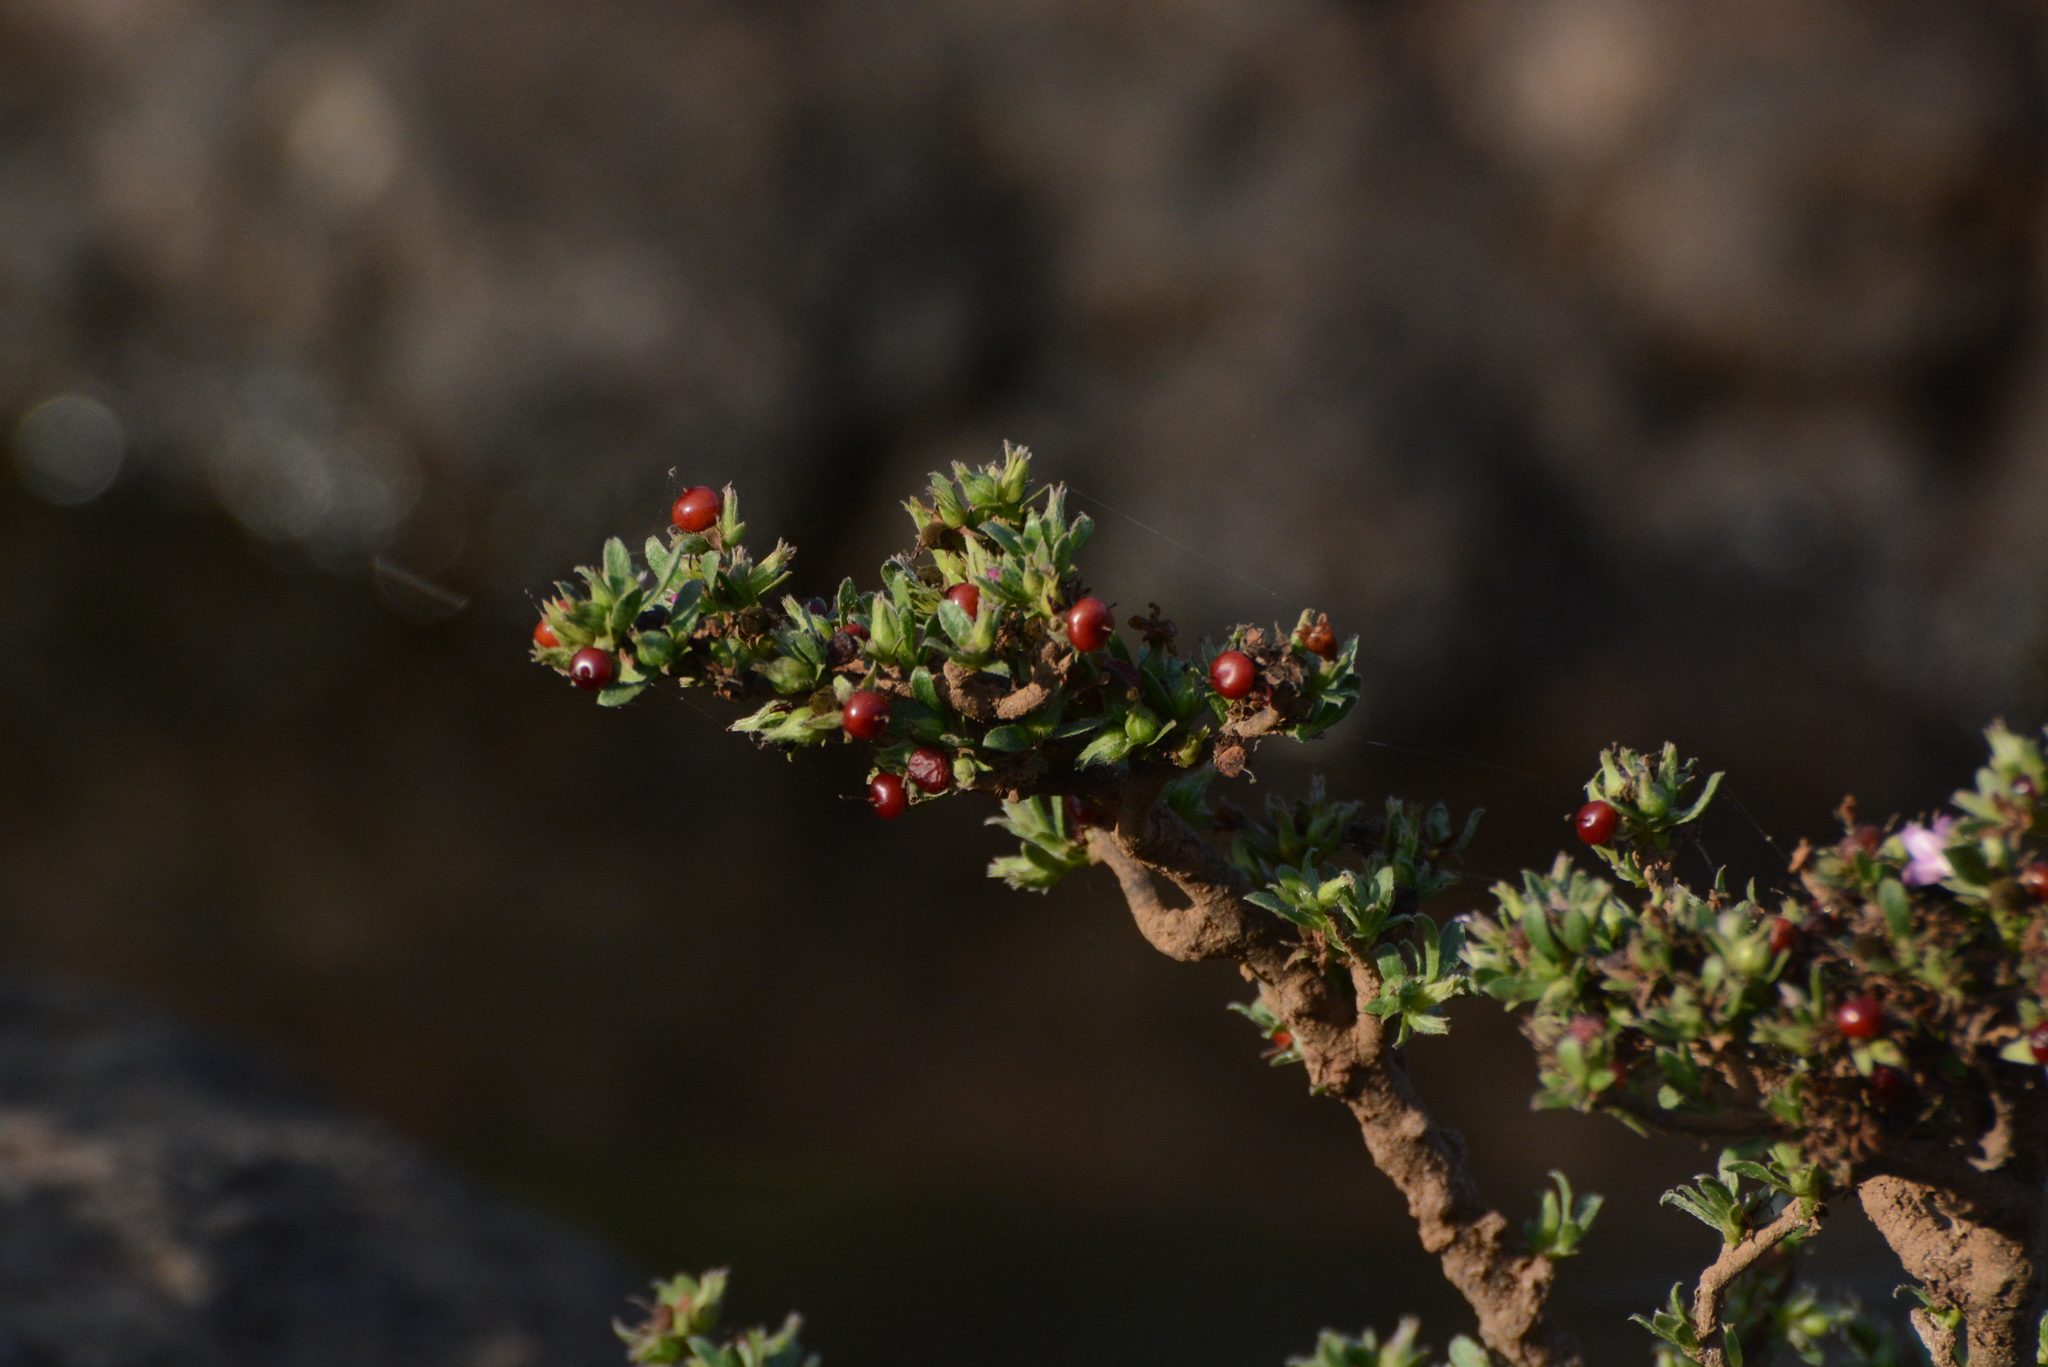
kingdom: Plantae
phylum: Tracheophyta
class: Magnoliopsida
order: Boraginales
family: Ehretiaceae
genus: Ehretia
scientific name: Ehretia aquatica
